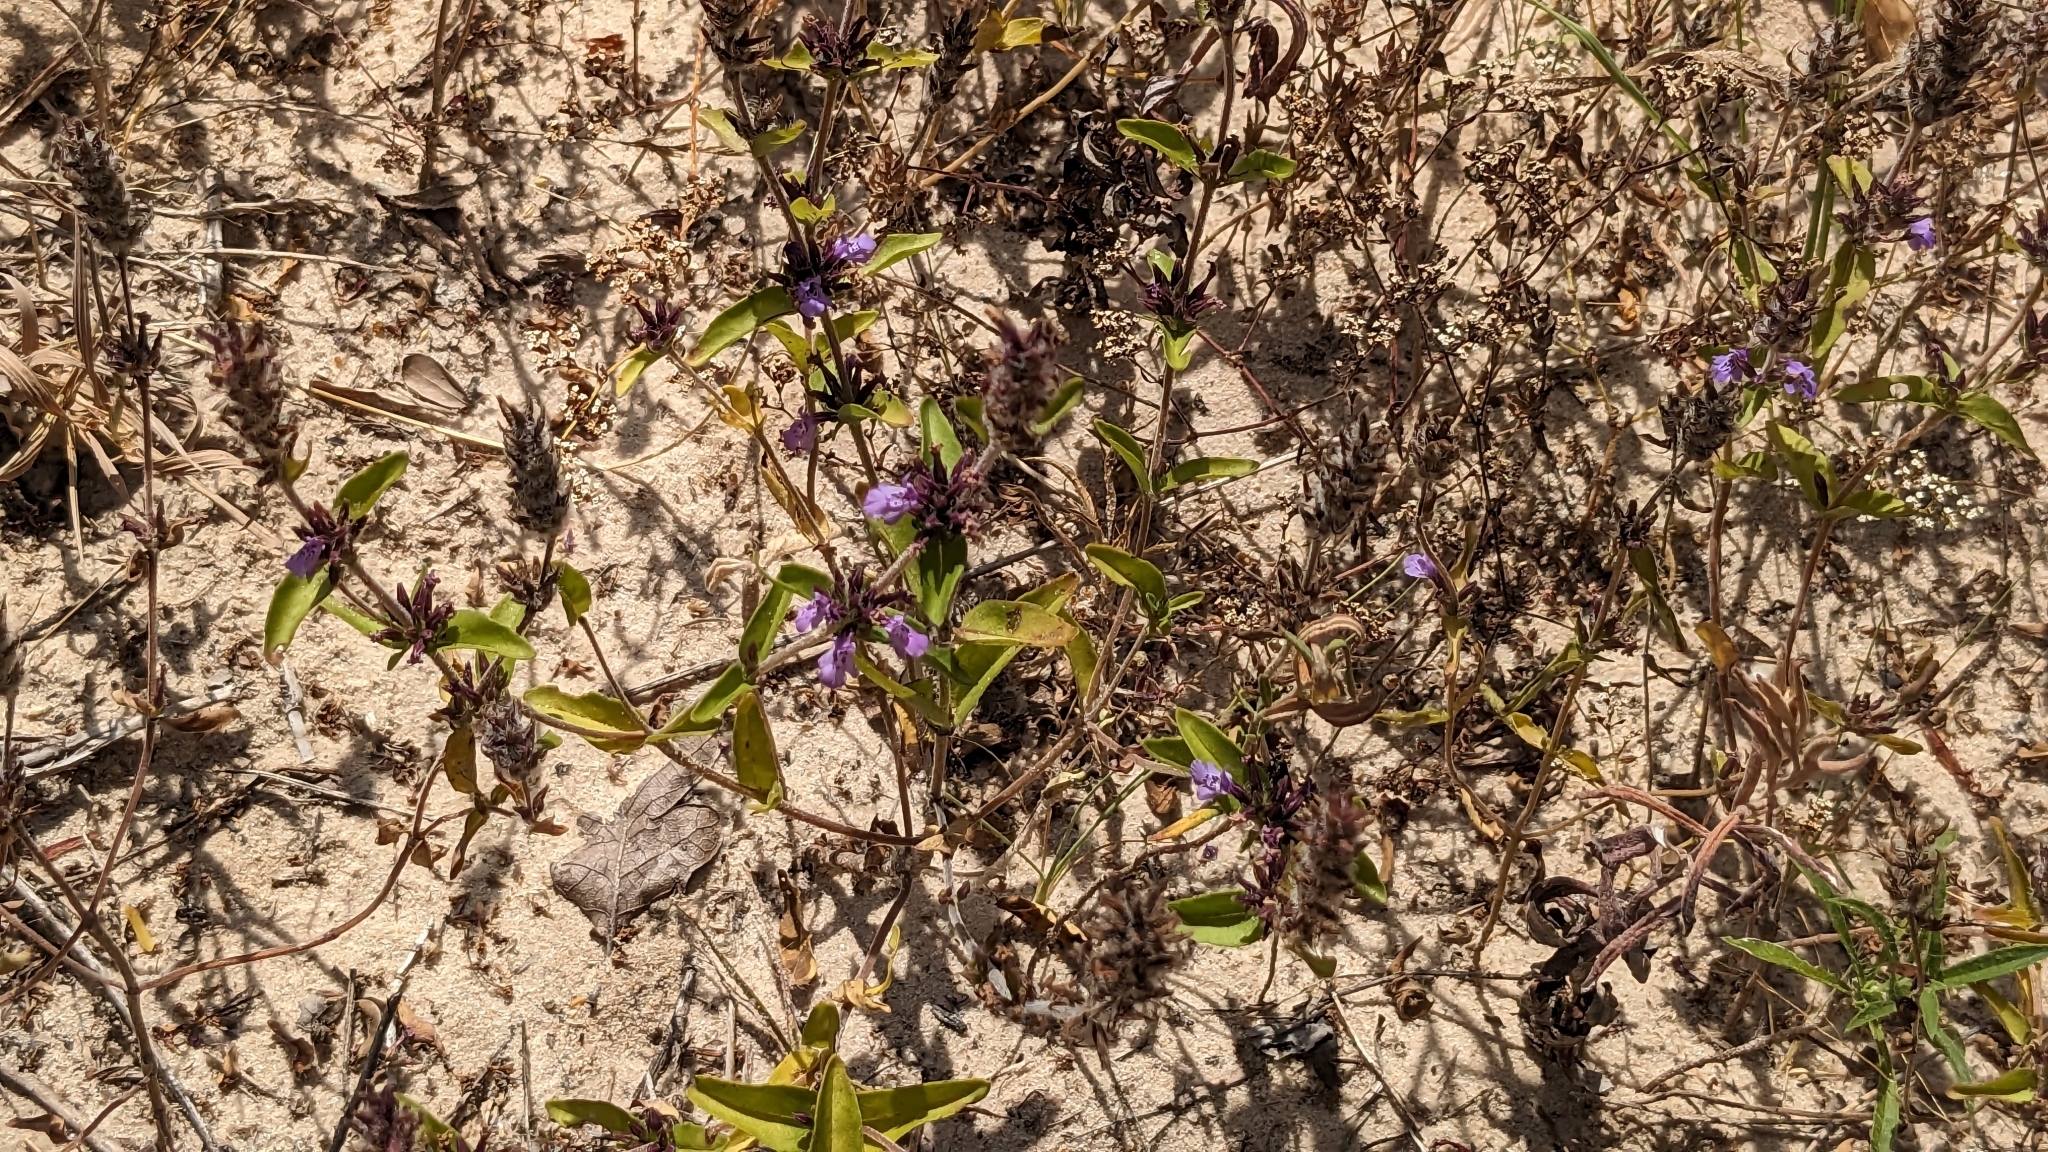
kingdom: Plantae
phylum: Tracheophyta
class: Magnoliopsida
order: Lamiales
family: Lamiaceae
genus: Rhododon
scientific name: Rhododon ciliatus
